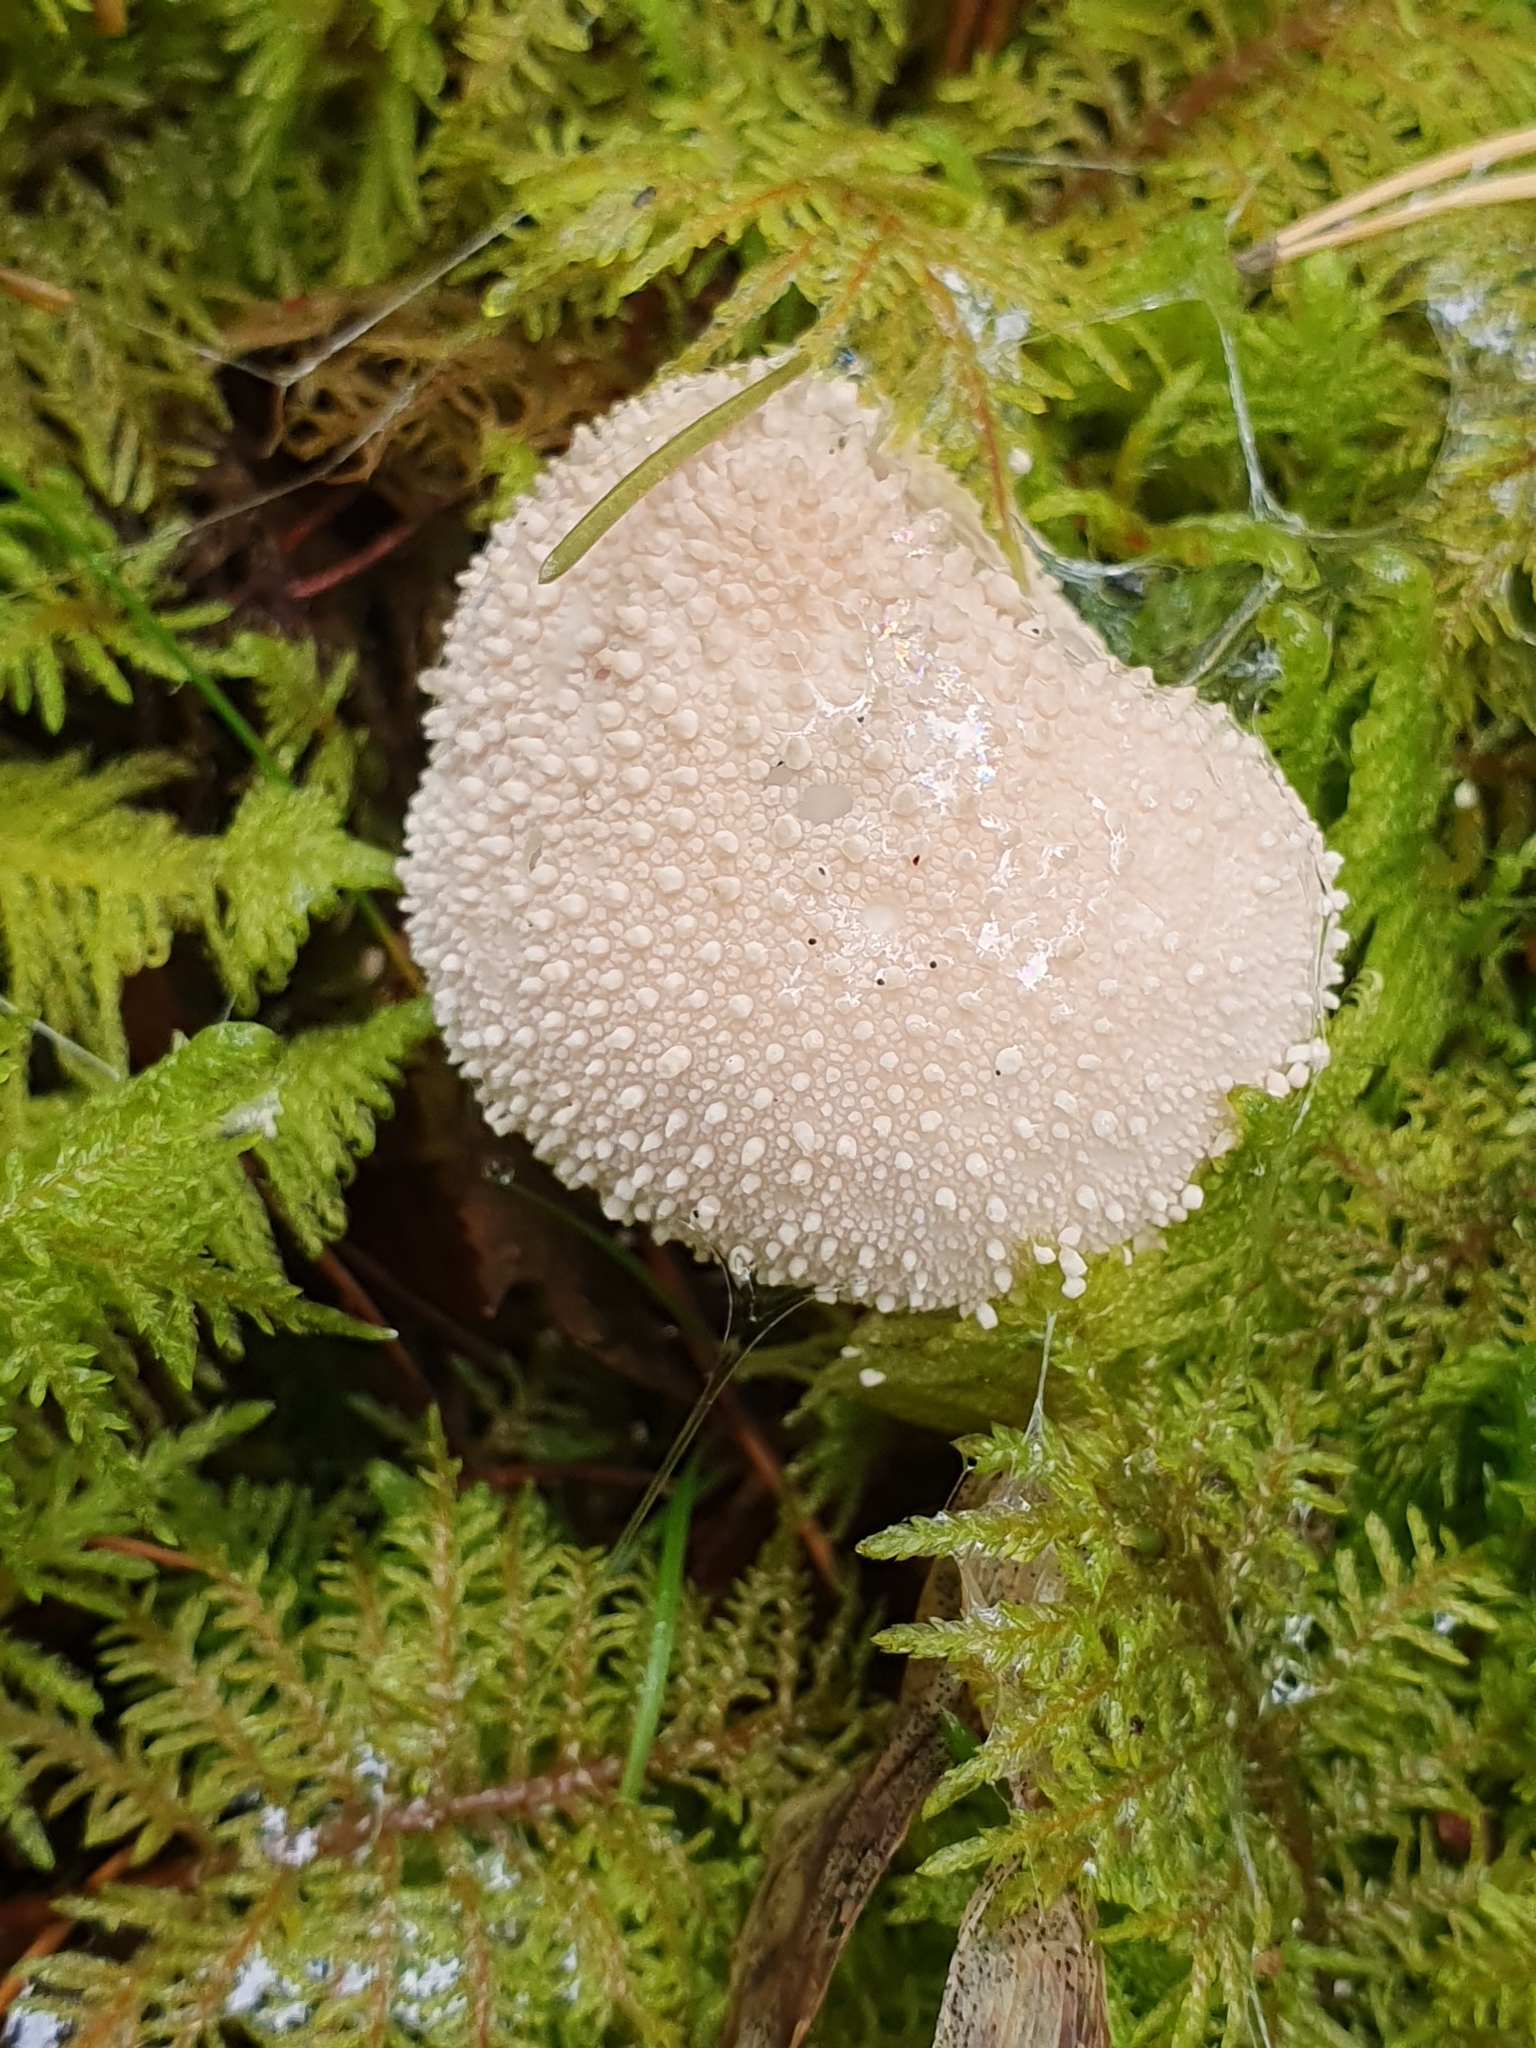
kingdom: Fungi
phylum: Basidiomycota
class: Agaricomycetes
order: Agaricales
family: Lycoperdaceae
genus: Lycoperdon
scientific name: Lycoperdon perlatum
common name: Common puffball
